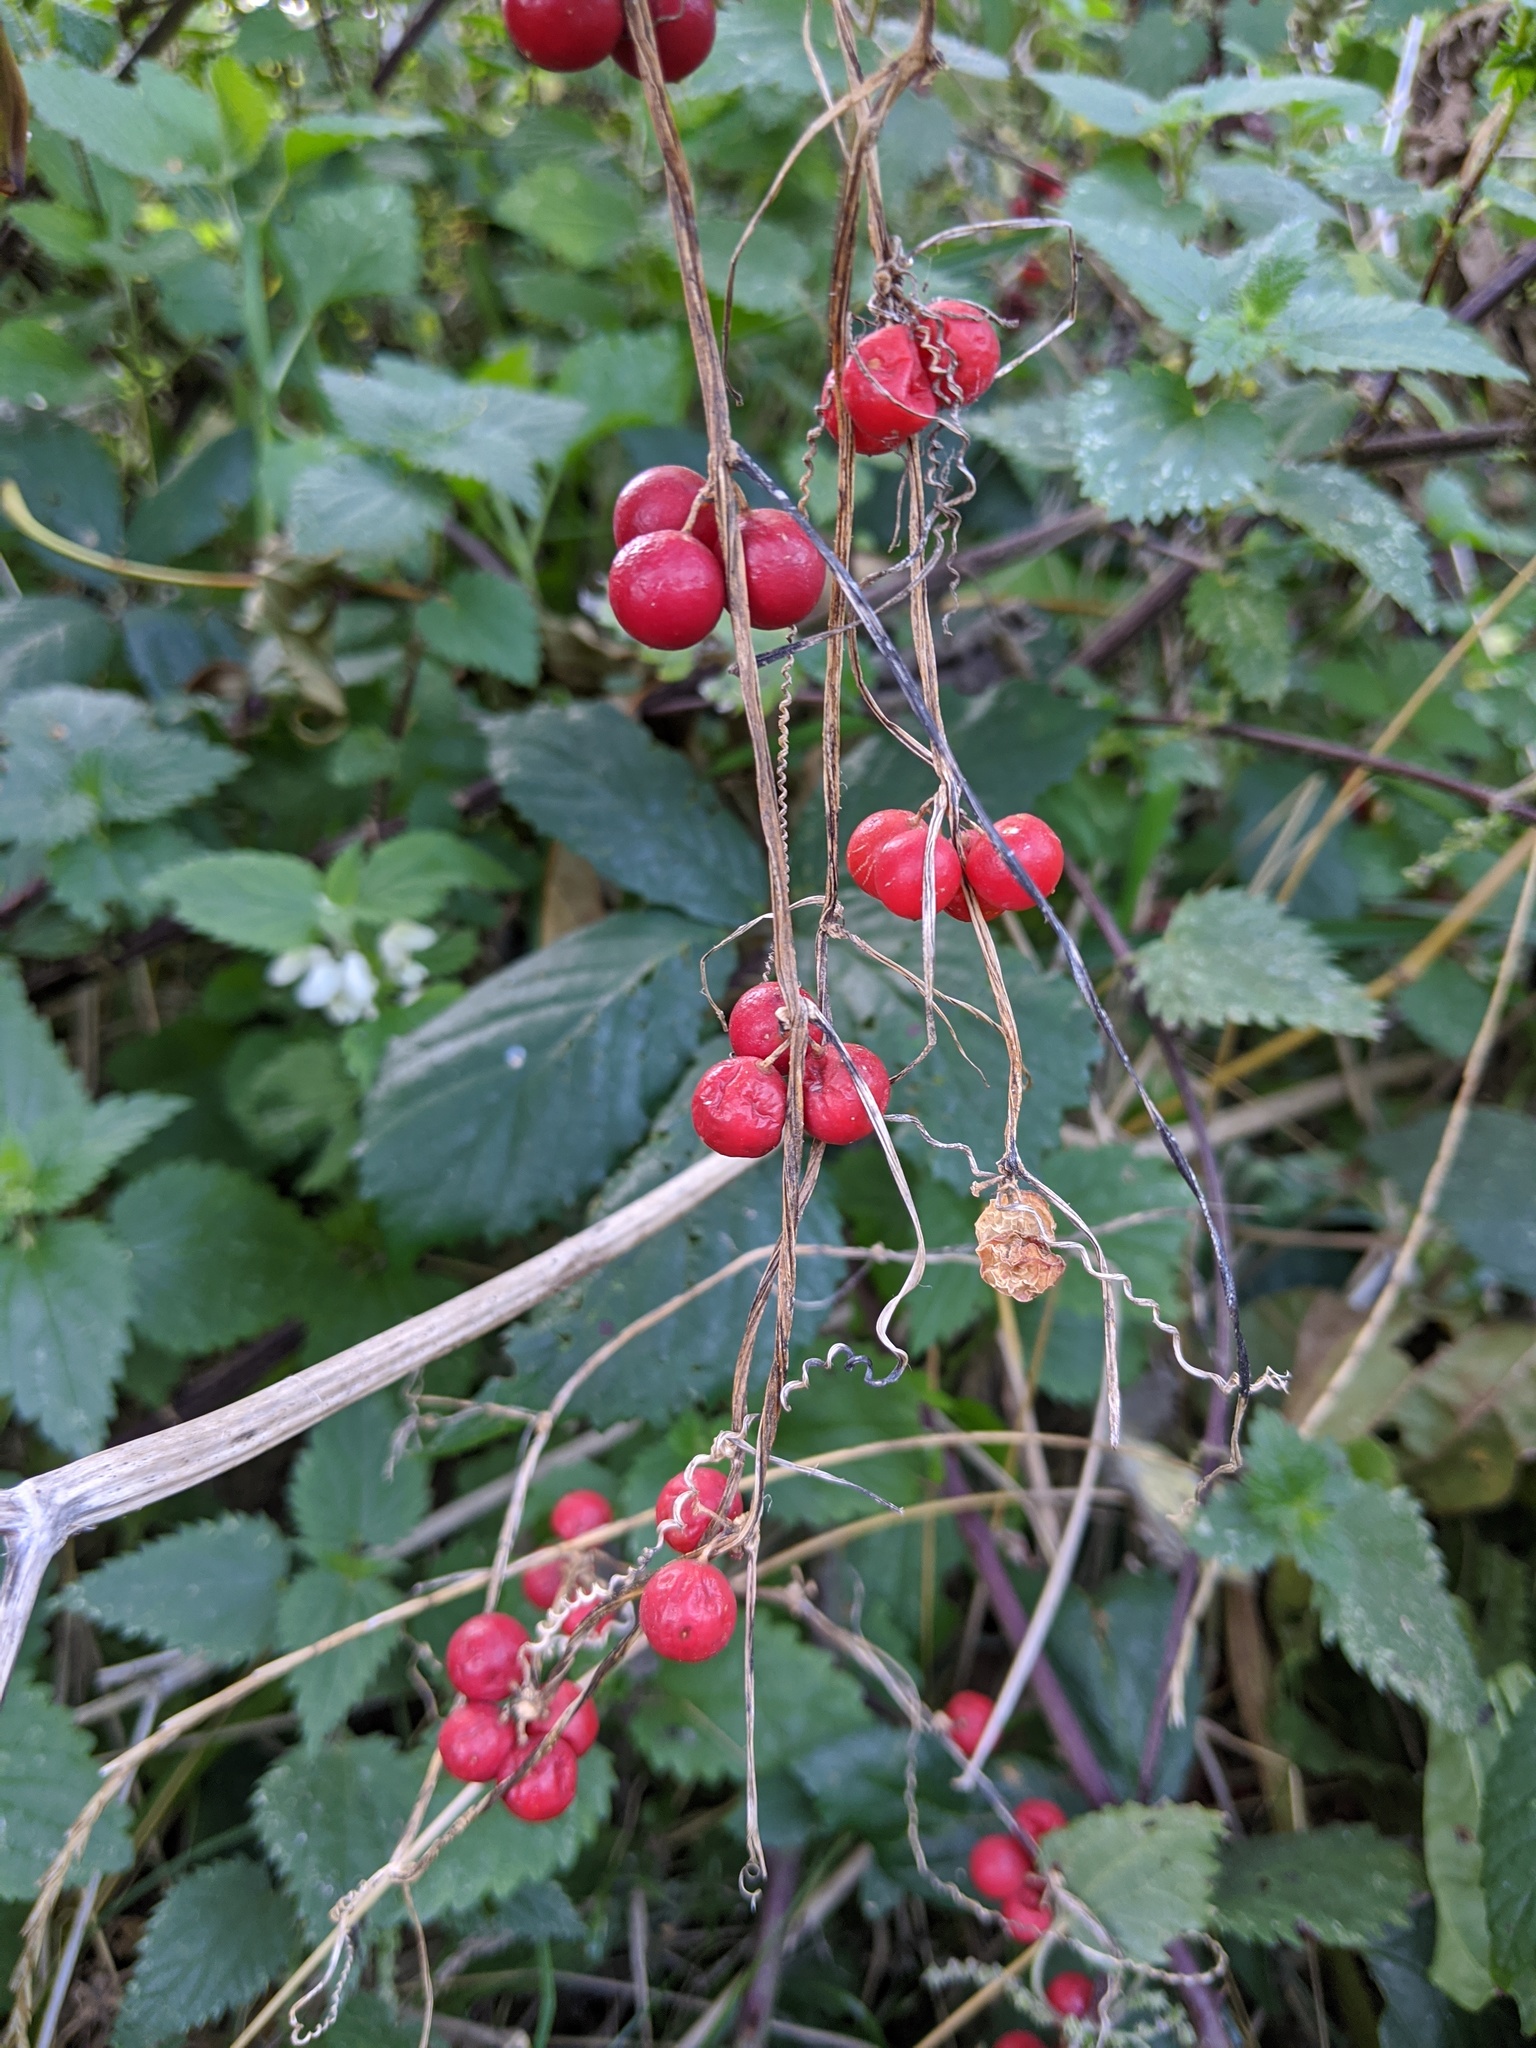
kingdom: Plantae
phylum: Tracheophyta
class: Magnoliopsida
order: Cucurbitales
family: Cucurbitaceae
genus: Bryonia
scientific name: Bryonia cretica
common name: Cretan bryony
